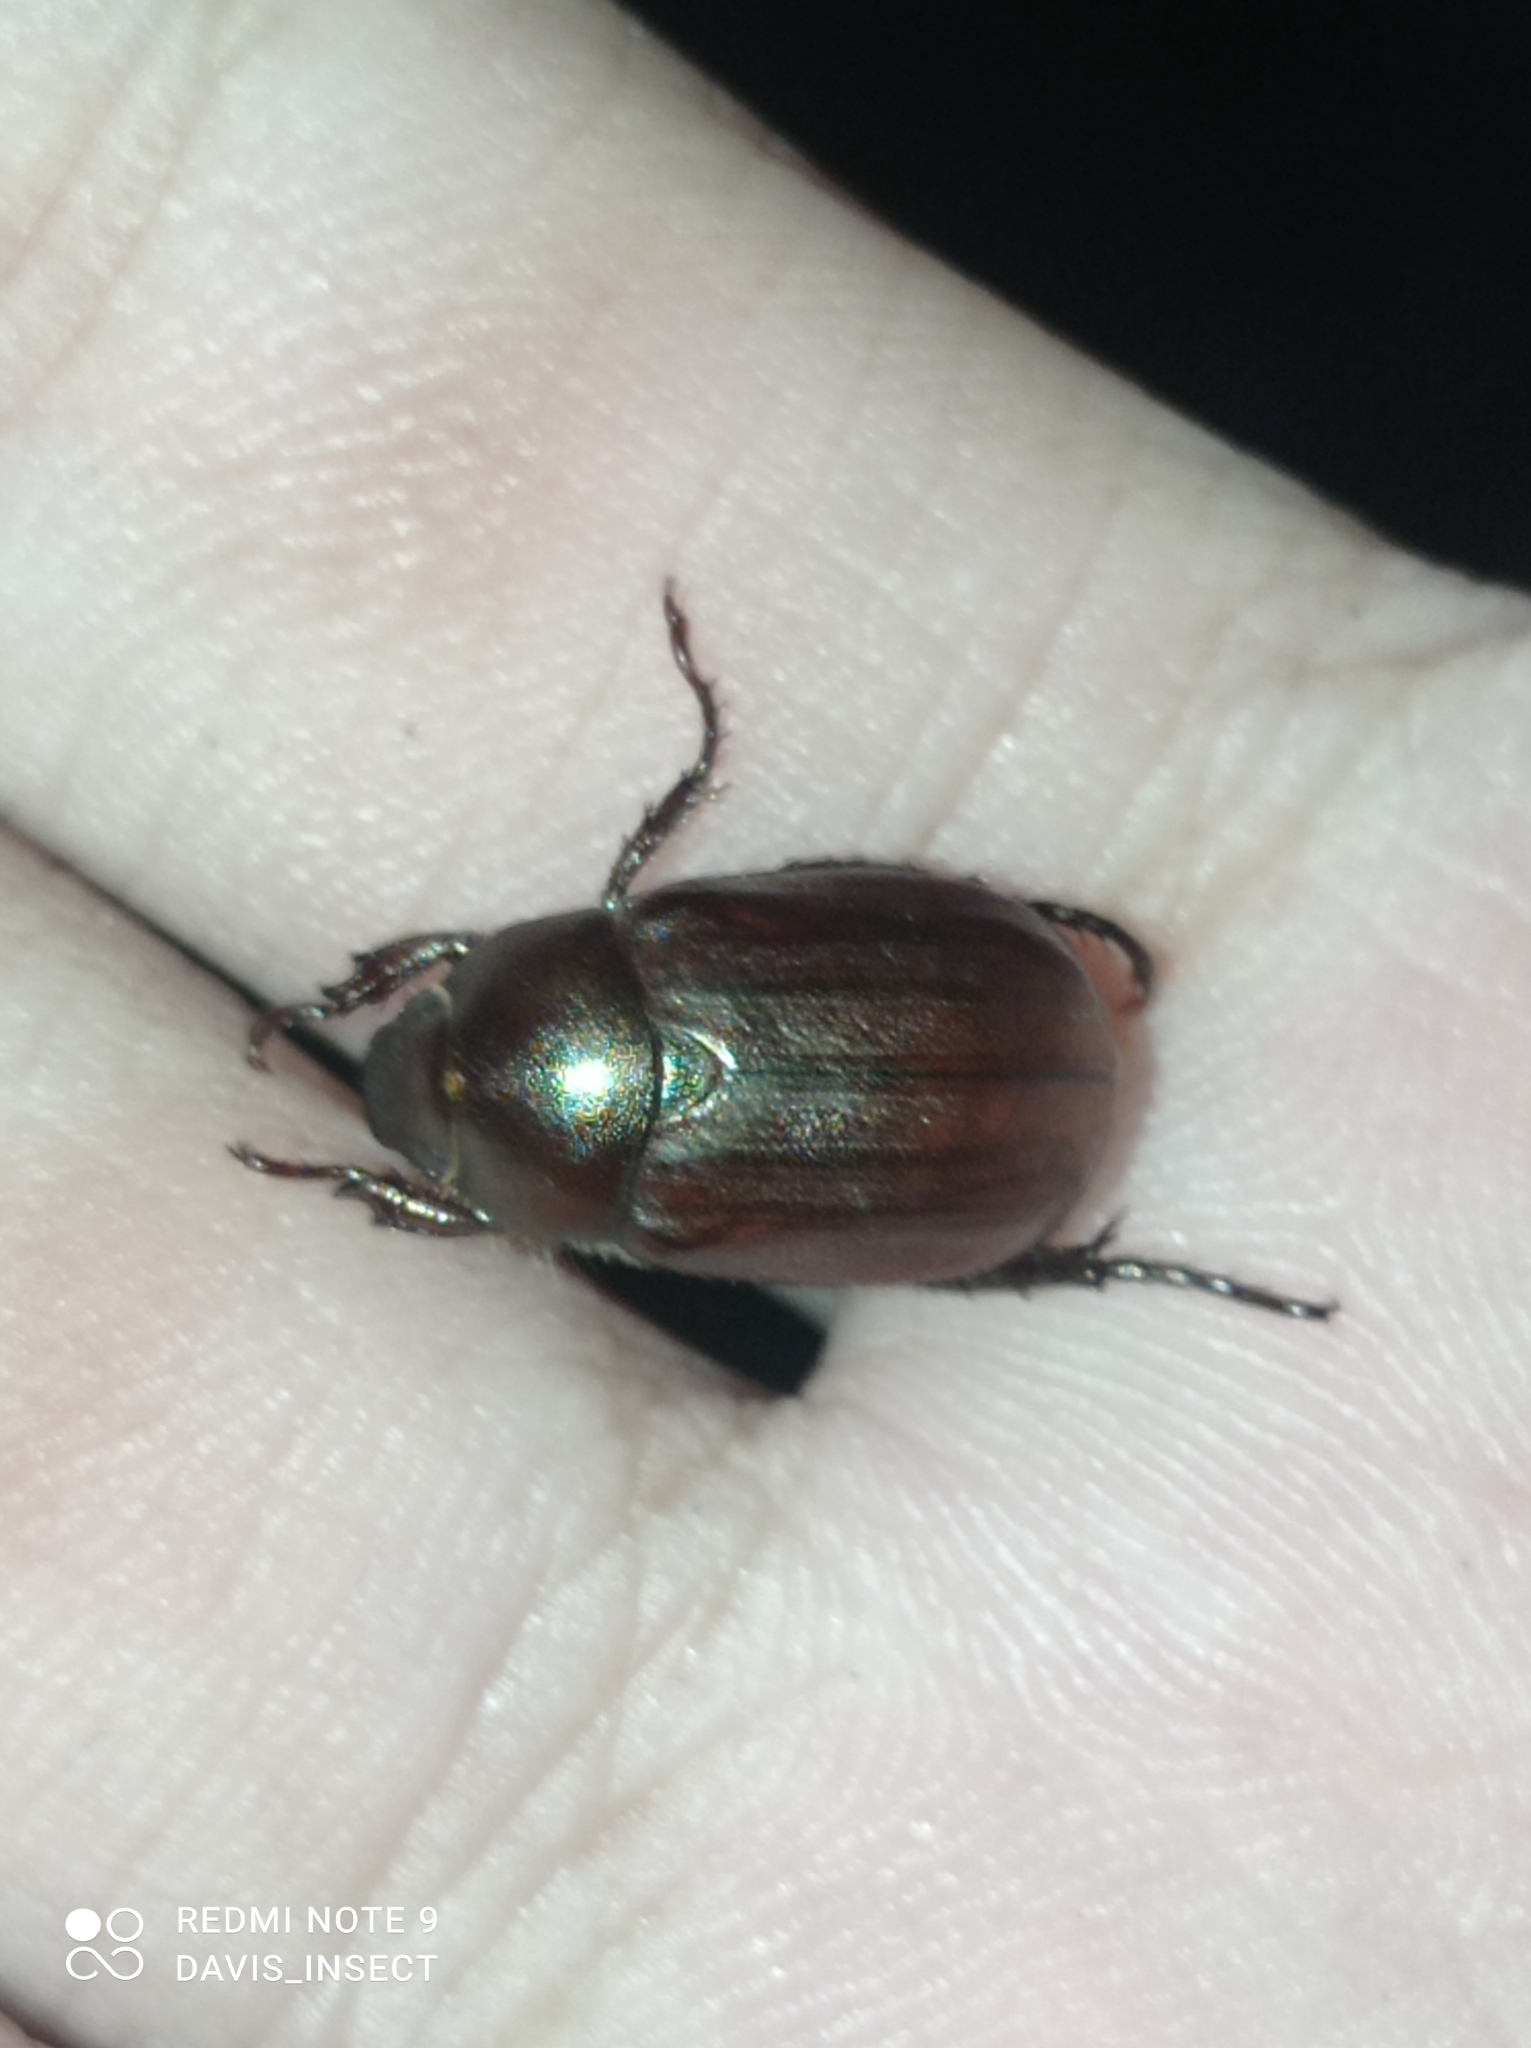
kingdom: Animalia
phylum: Arthropoda
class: Insecta
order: Coleoptera
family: Scarabaeidae
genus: Anomala
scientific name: Anomala crypsinoa
